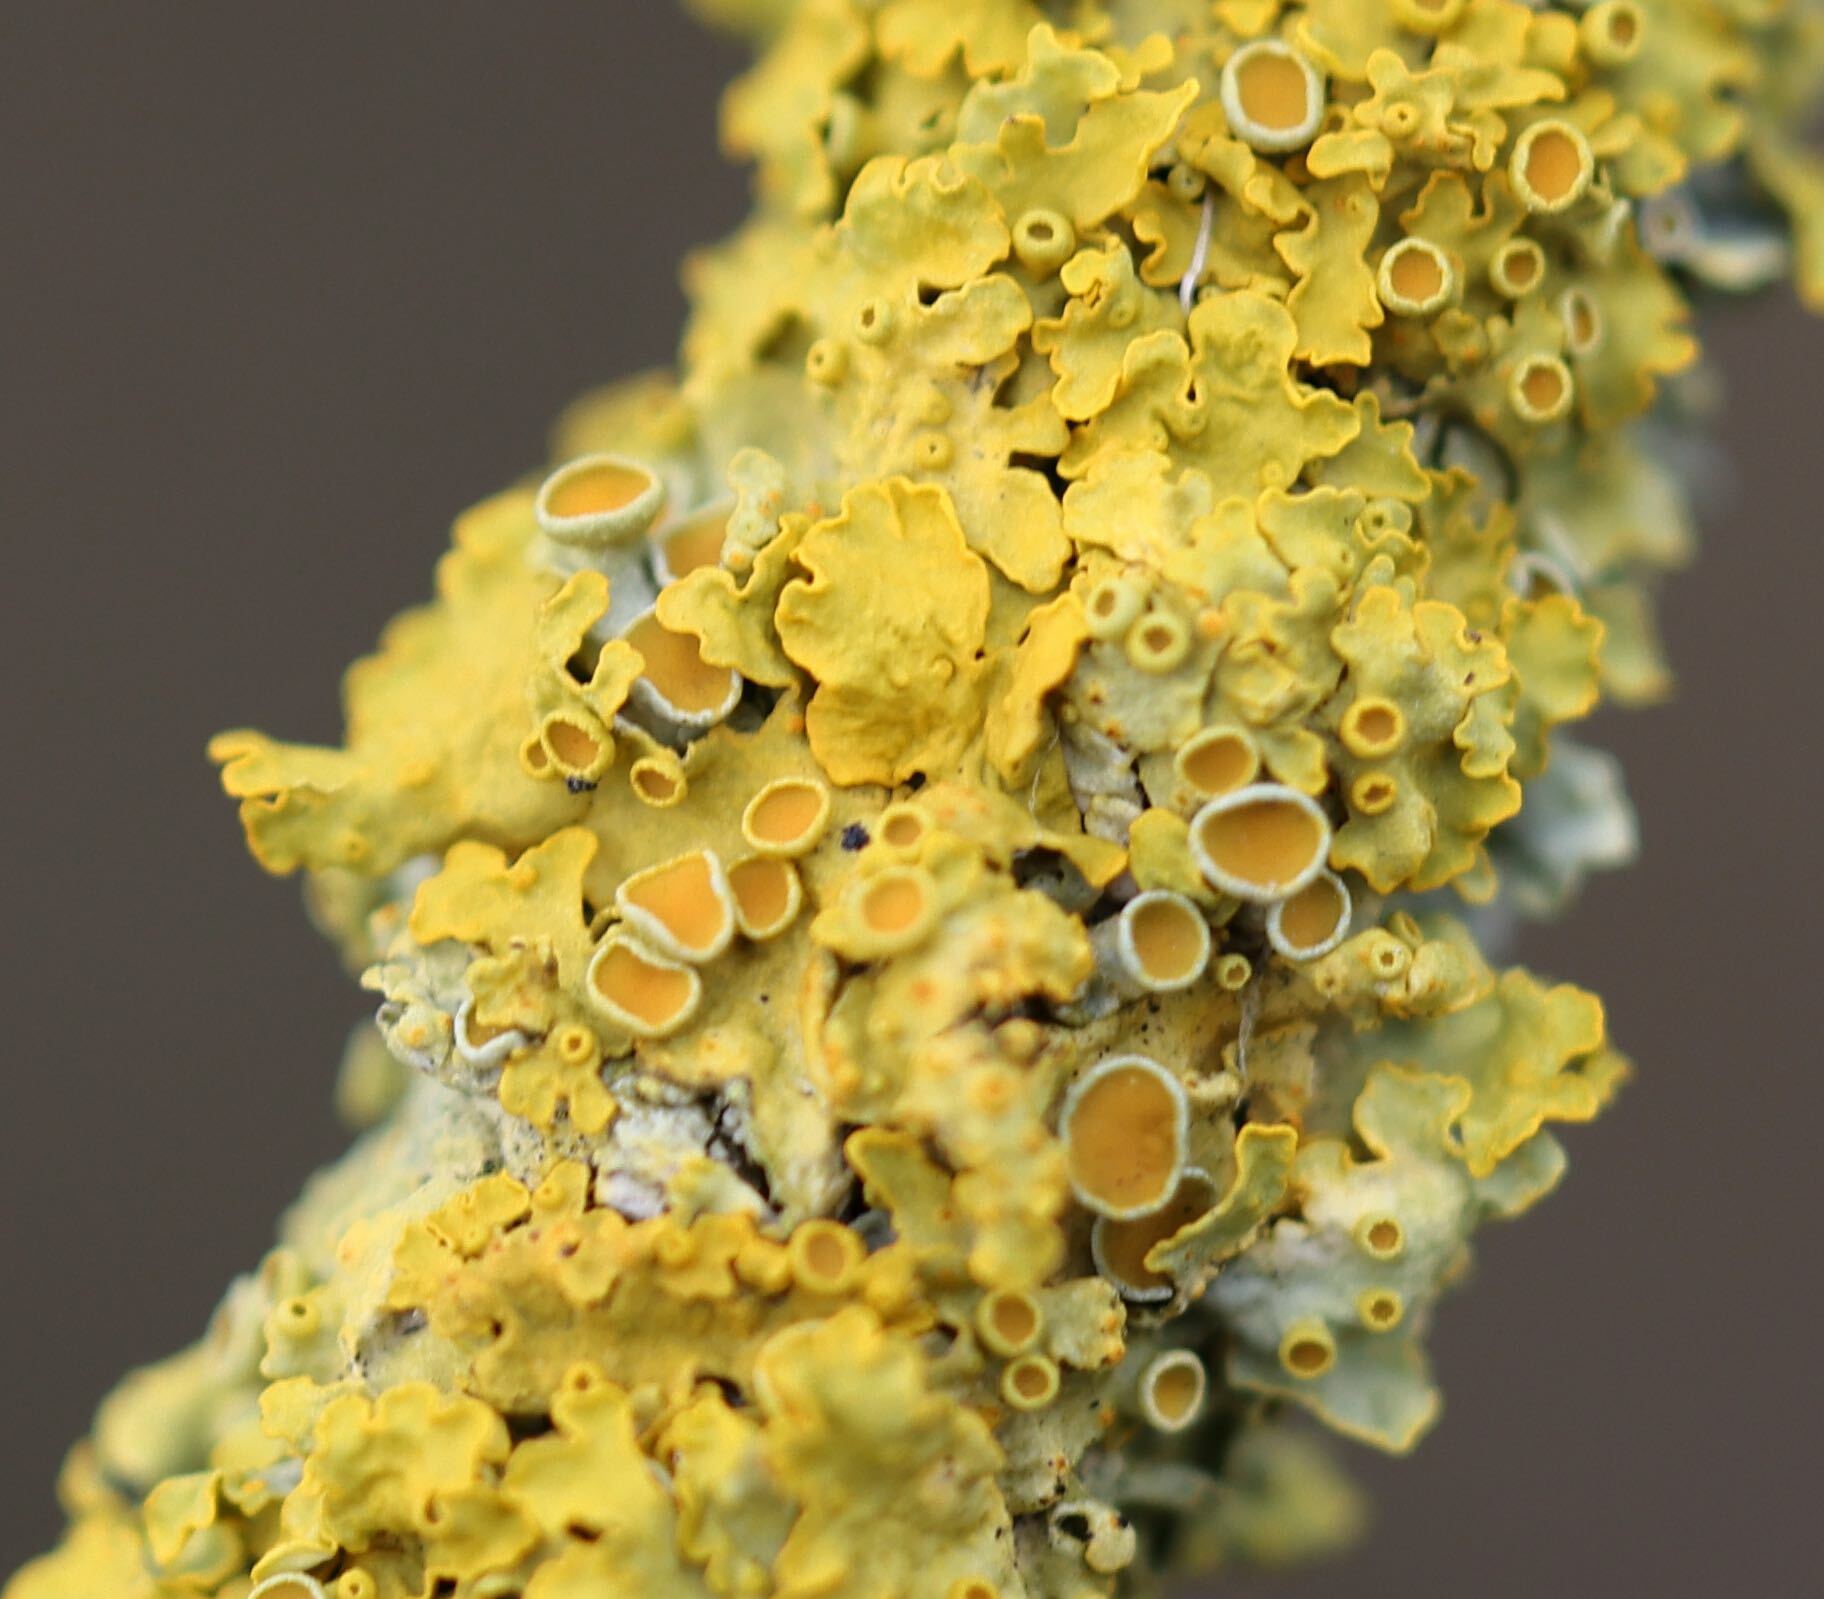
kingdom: Fungi
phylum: Ascomycota
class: Lecanoromycetes
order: Teloschistales
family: Teloschistaceae
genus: Xanthoria
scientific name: Xanthoria parietina
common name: Common orange lichen
